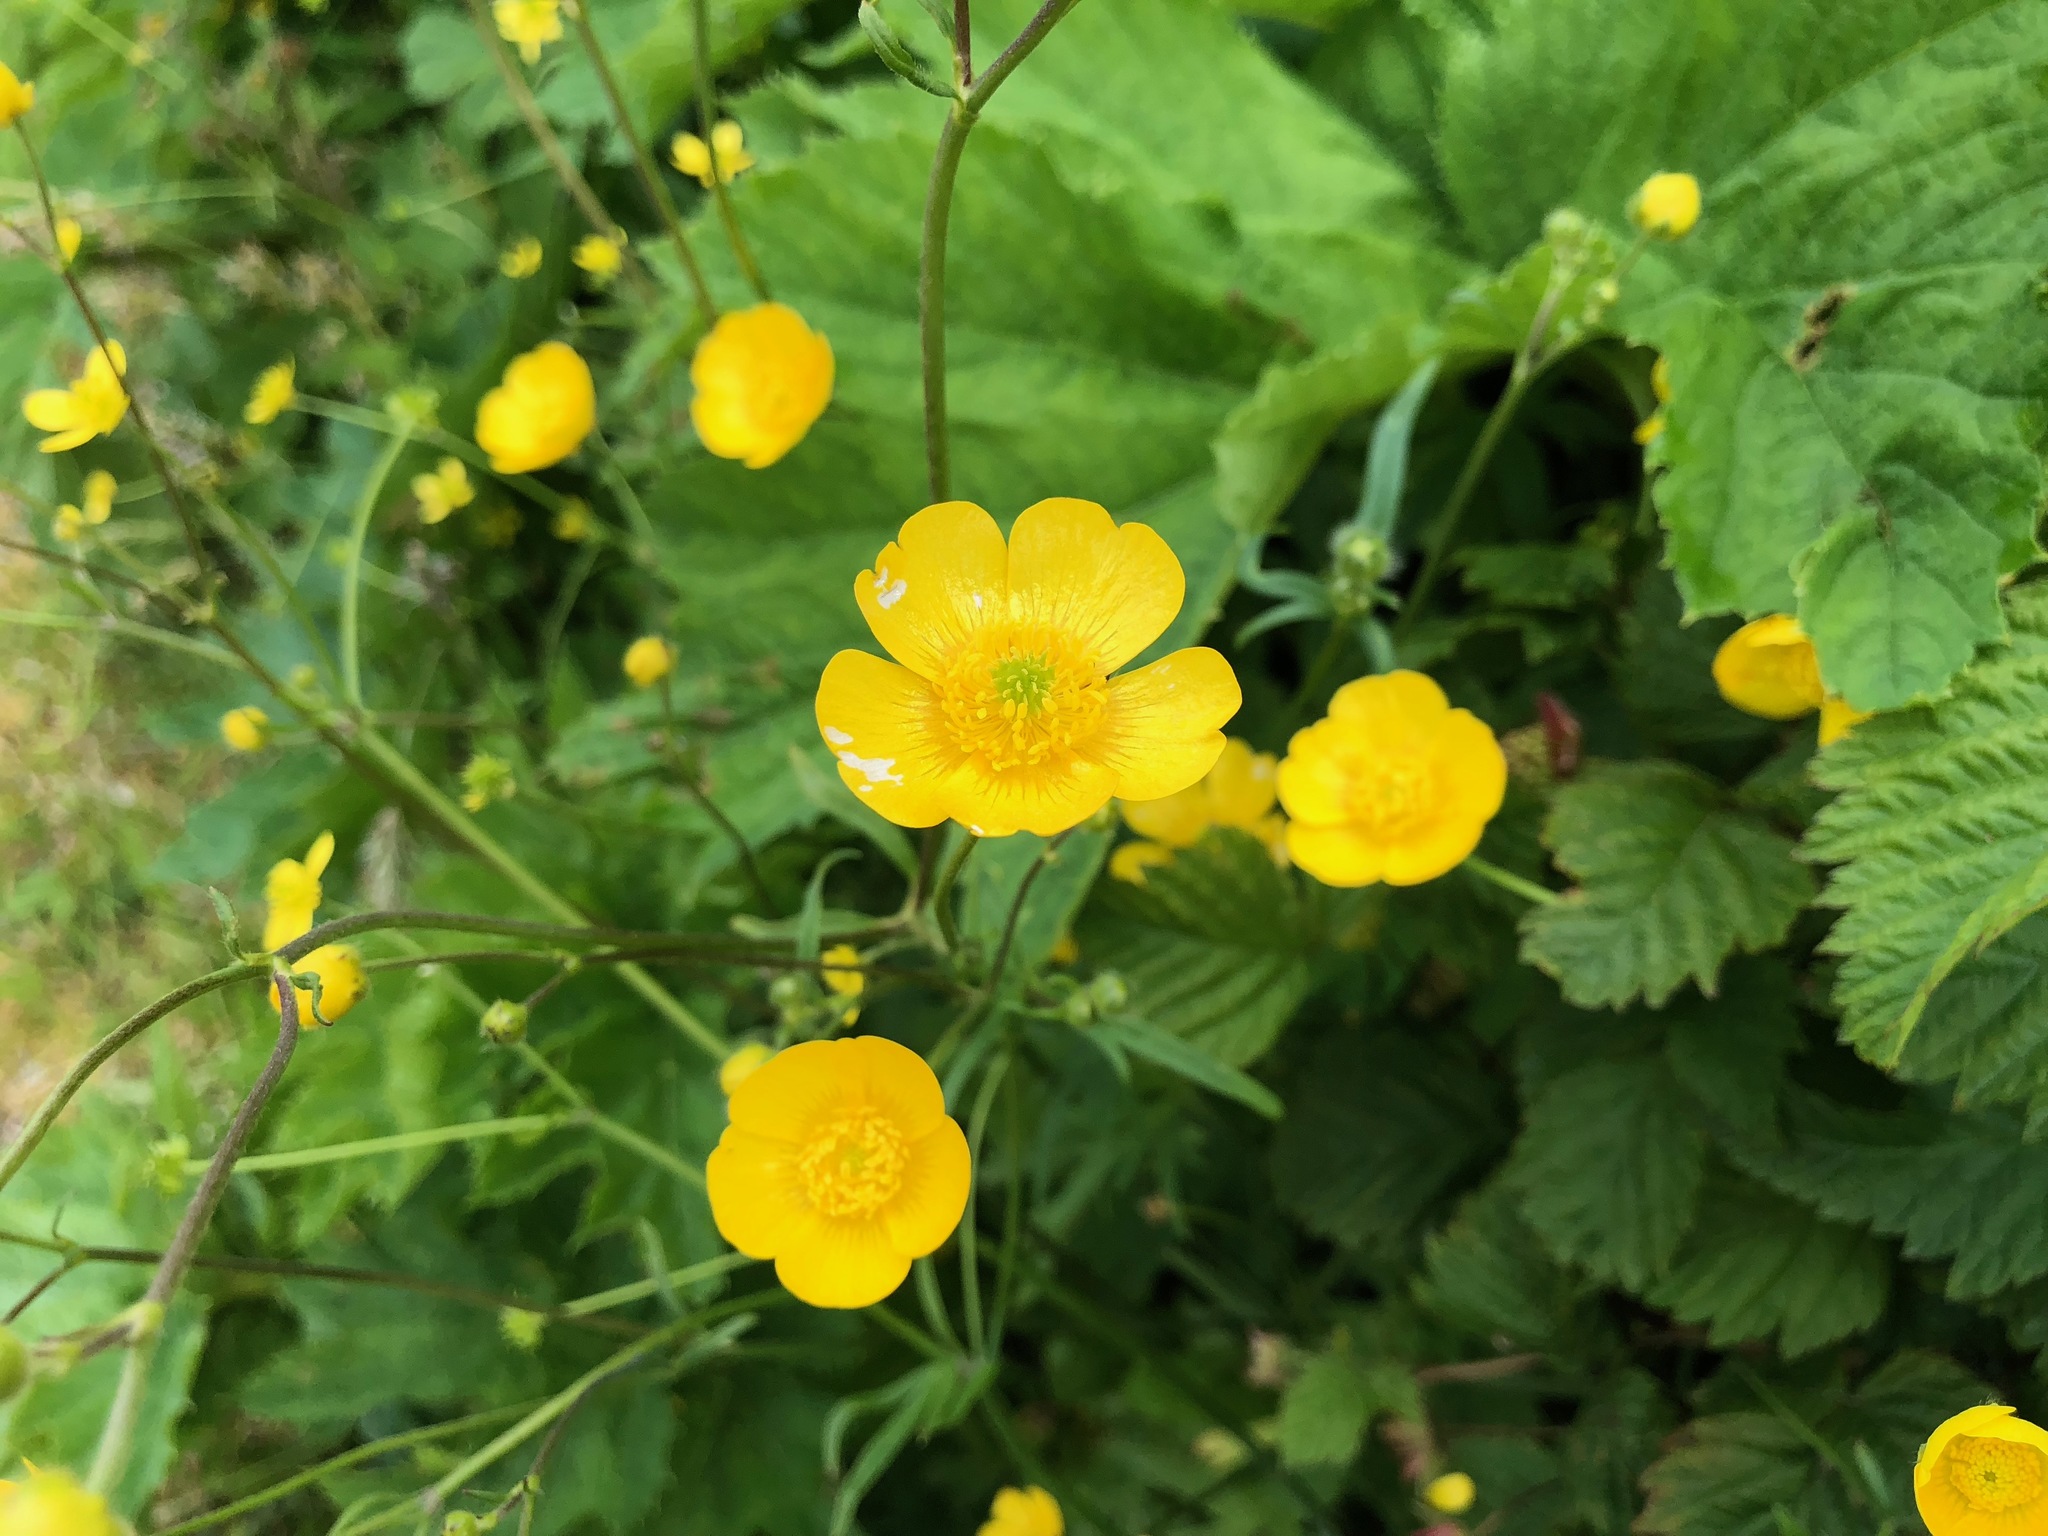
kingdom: Plantae
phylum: Tracheophyta
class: Magnoliopsida
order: Ranunculales
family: Ranunculaceae
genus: Ranunculus
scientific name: Ranunculus acris
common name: Meadow buttercup
